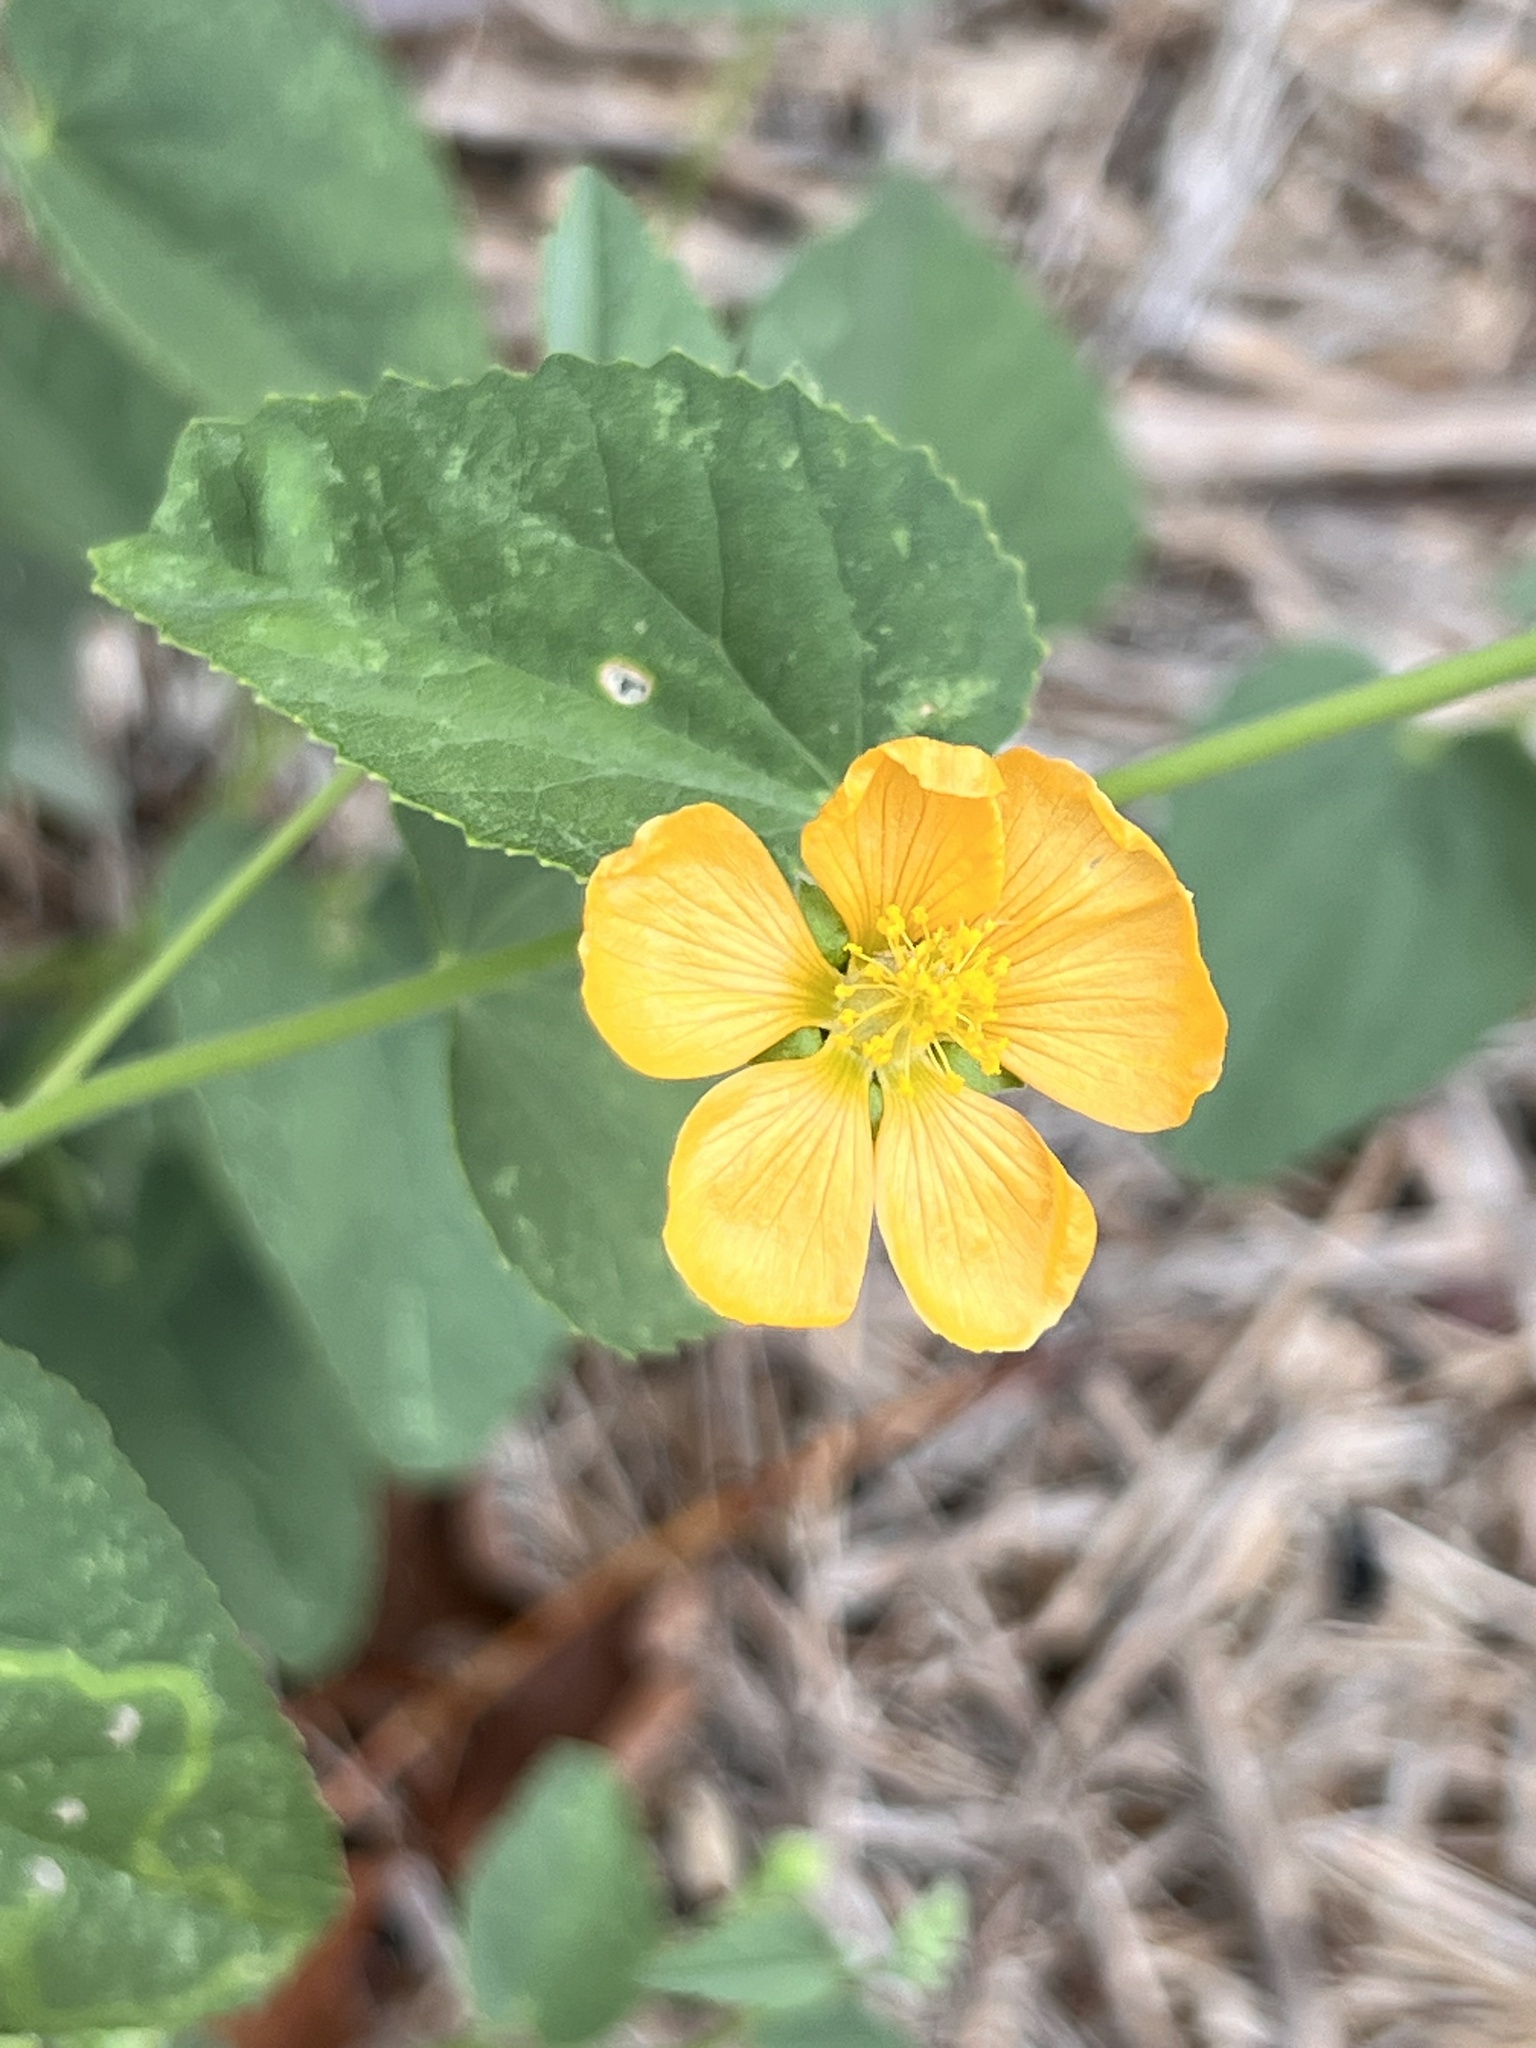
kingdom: Plantae
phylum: Tracheophyta
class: Magnoliopsida
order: Malvales
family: Malvaceae
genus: Abutilon
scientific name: Abutilon fruticosum
